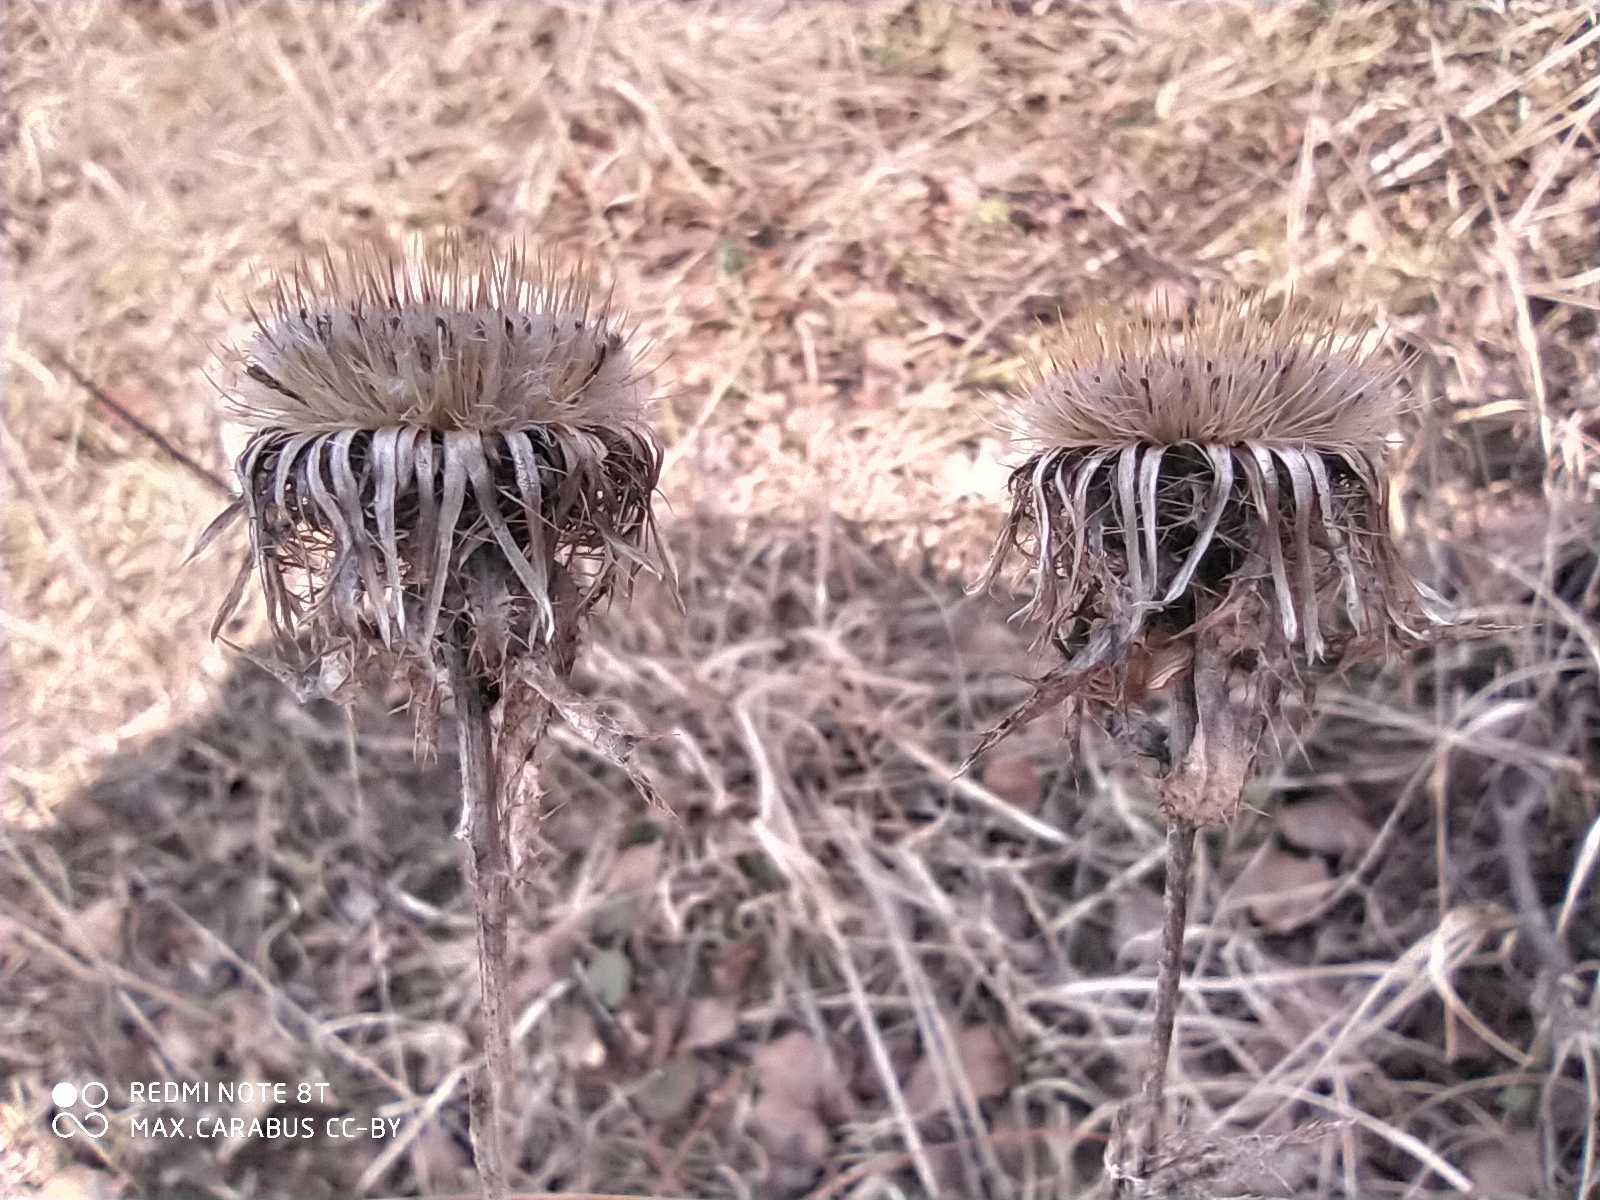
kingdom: Plantae
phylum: Tracheophyta
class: Magnoliopsida
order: Asterales
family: Asteraceae
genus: Carlina
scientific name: Carlina biebersteinii
